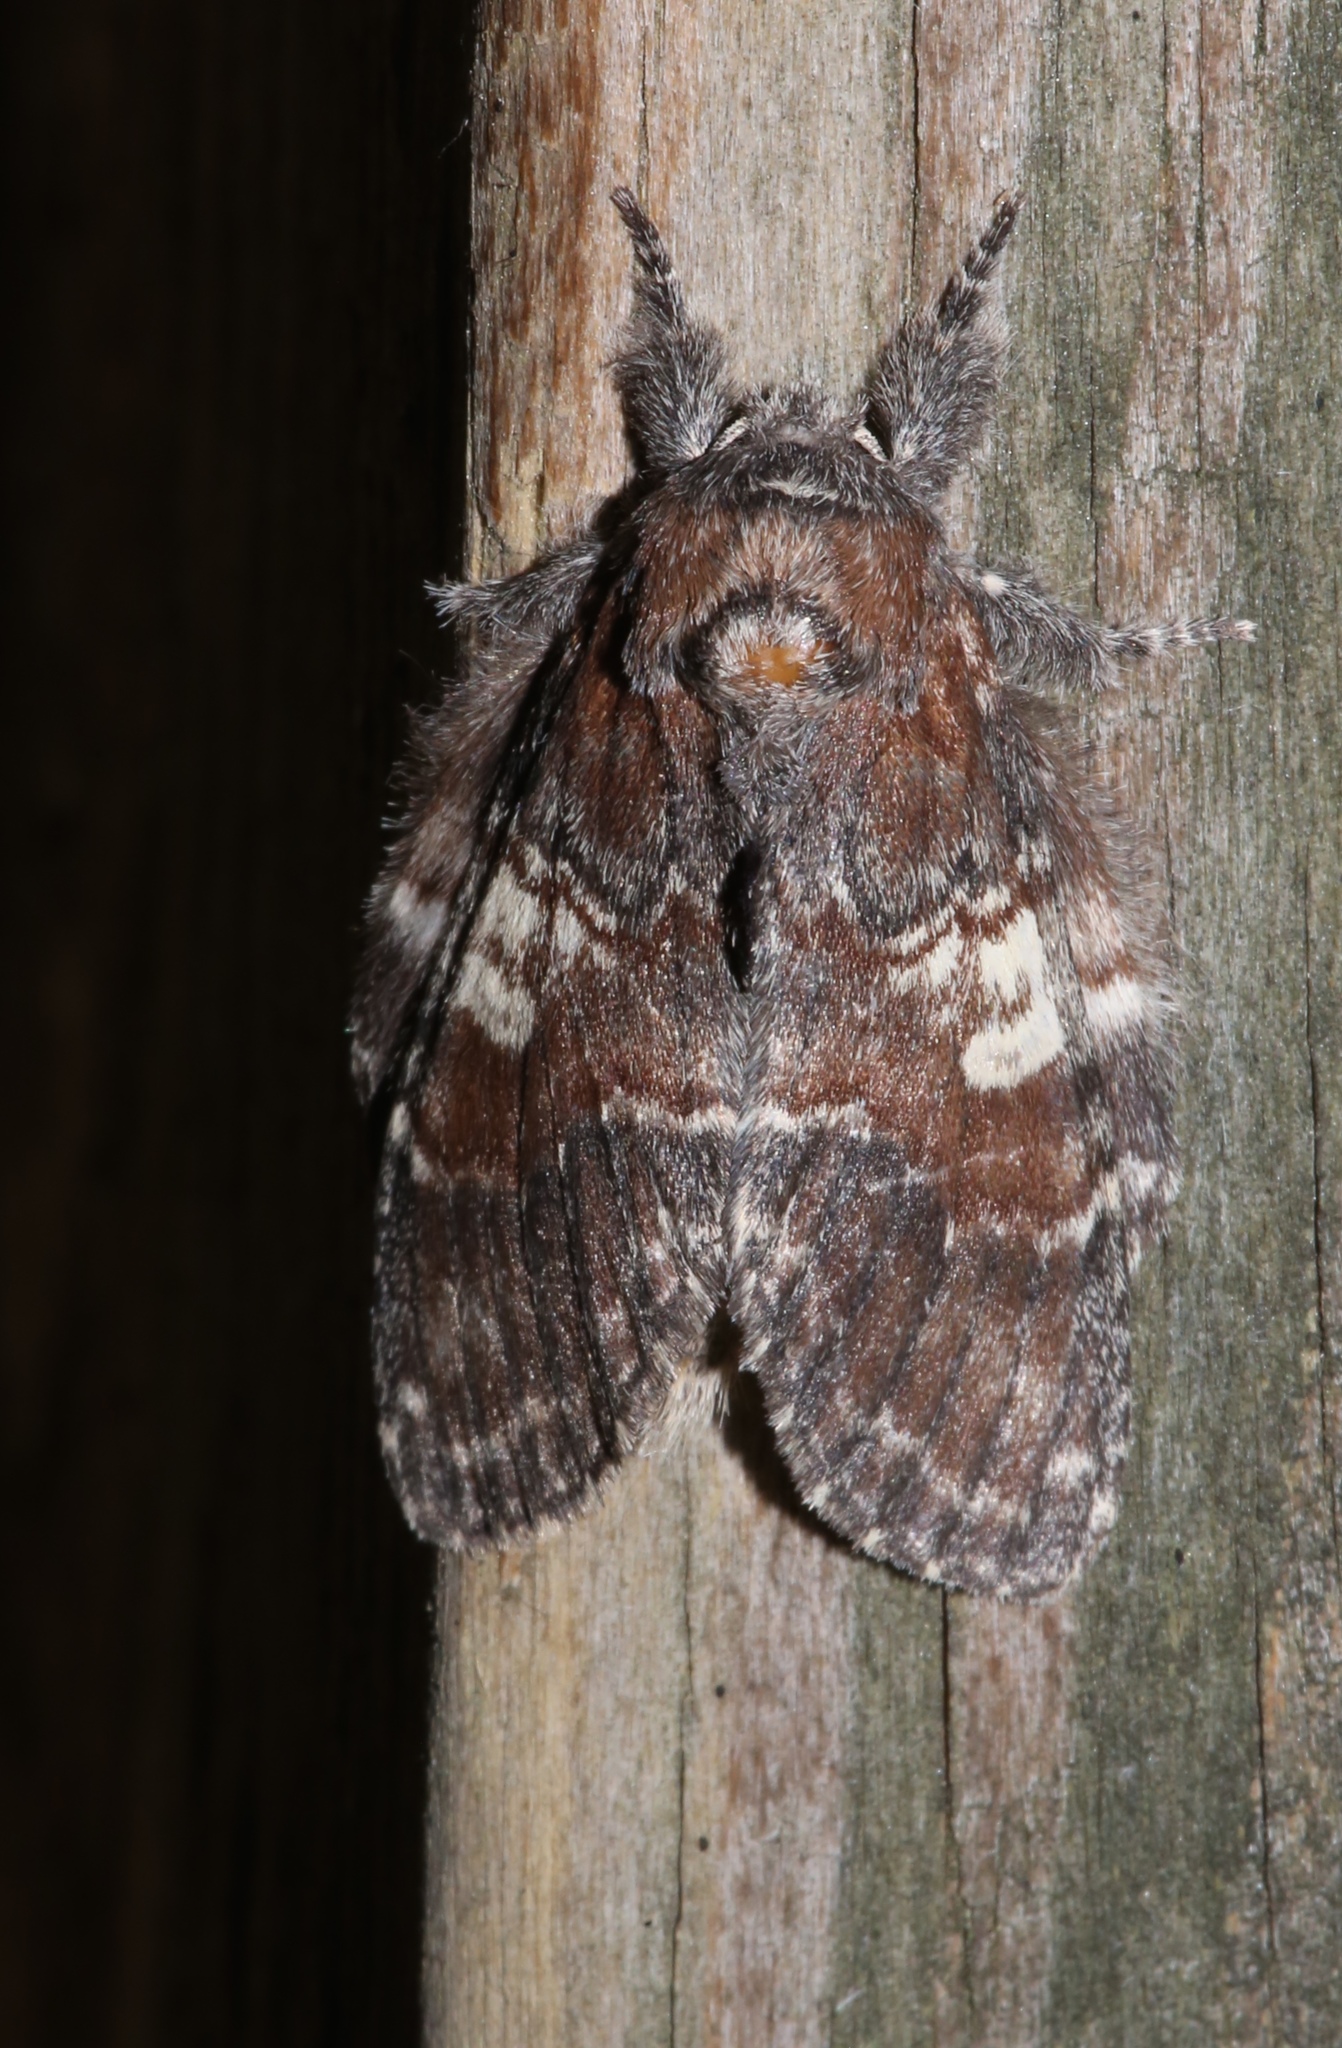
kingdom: Animalia
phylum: Arthropoda
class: Insecta
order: Lepidoptera
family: Notodontidae
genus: Peridea
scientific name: Peridea ferruginea
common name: Chocolate prominent
